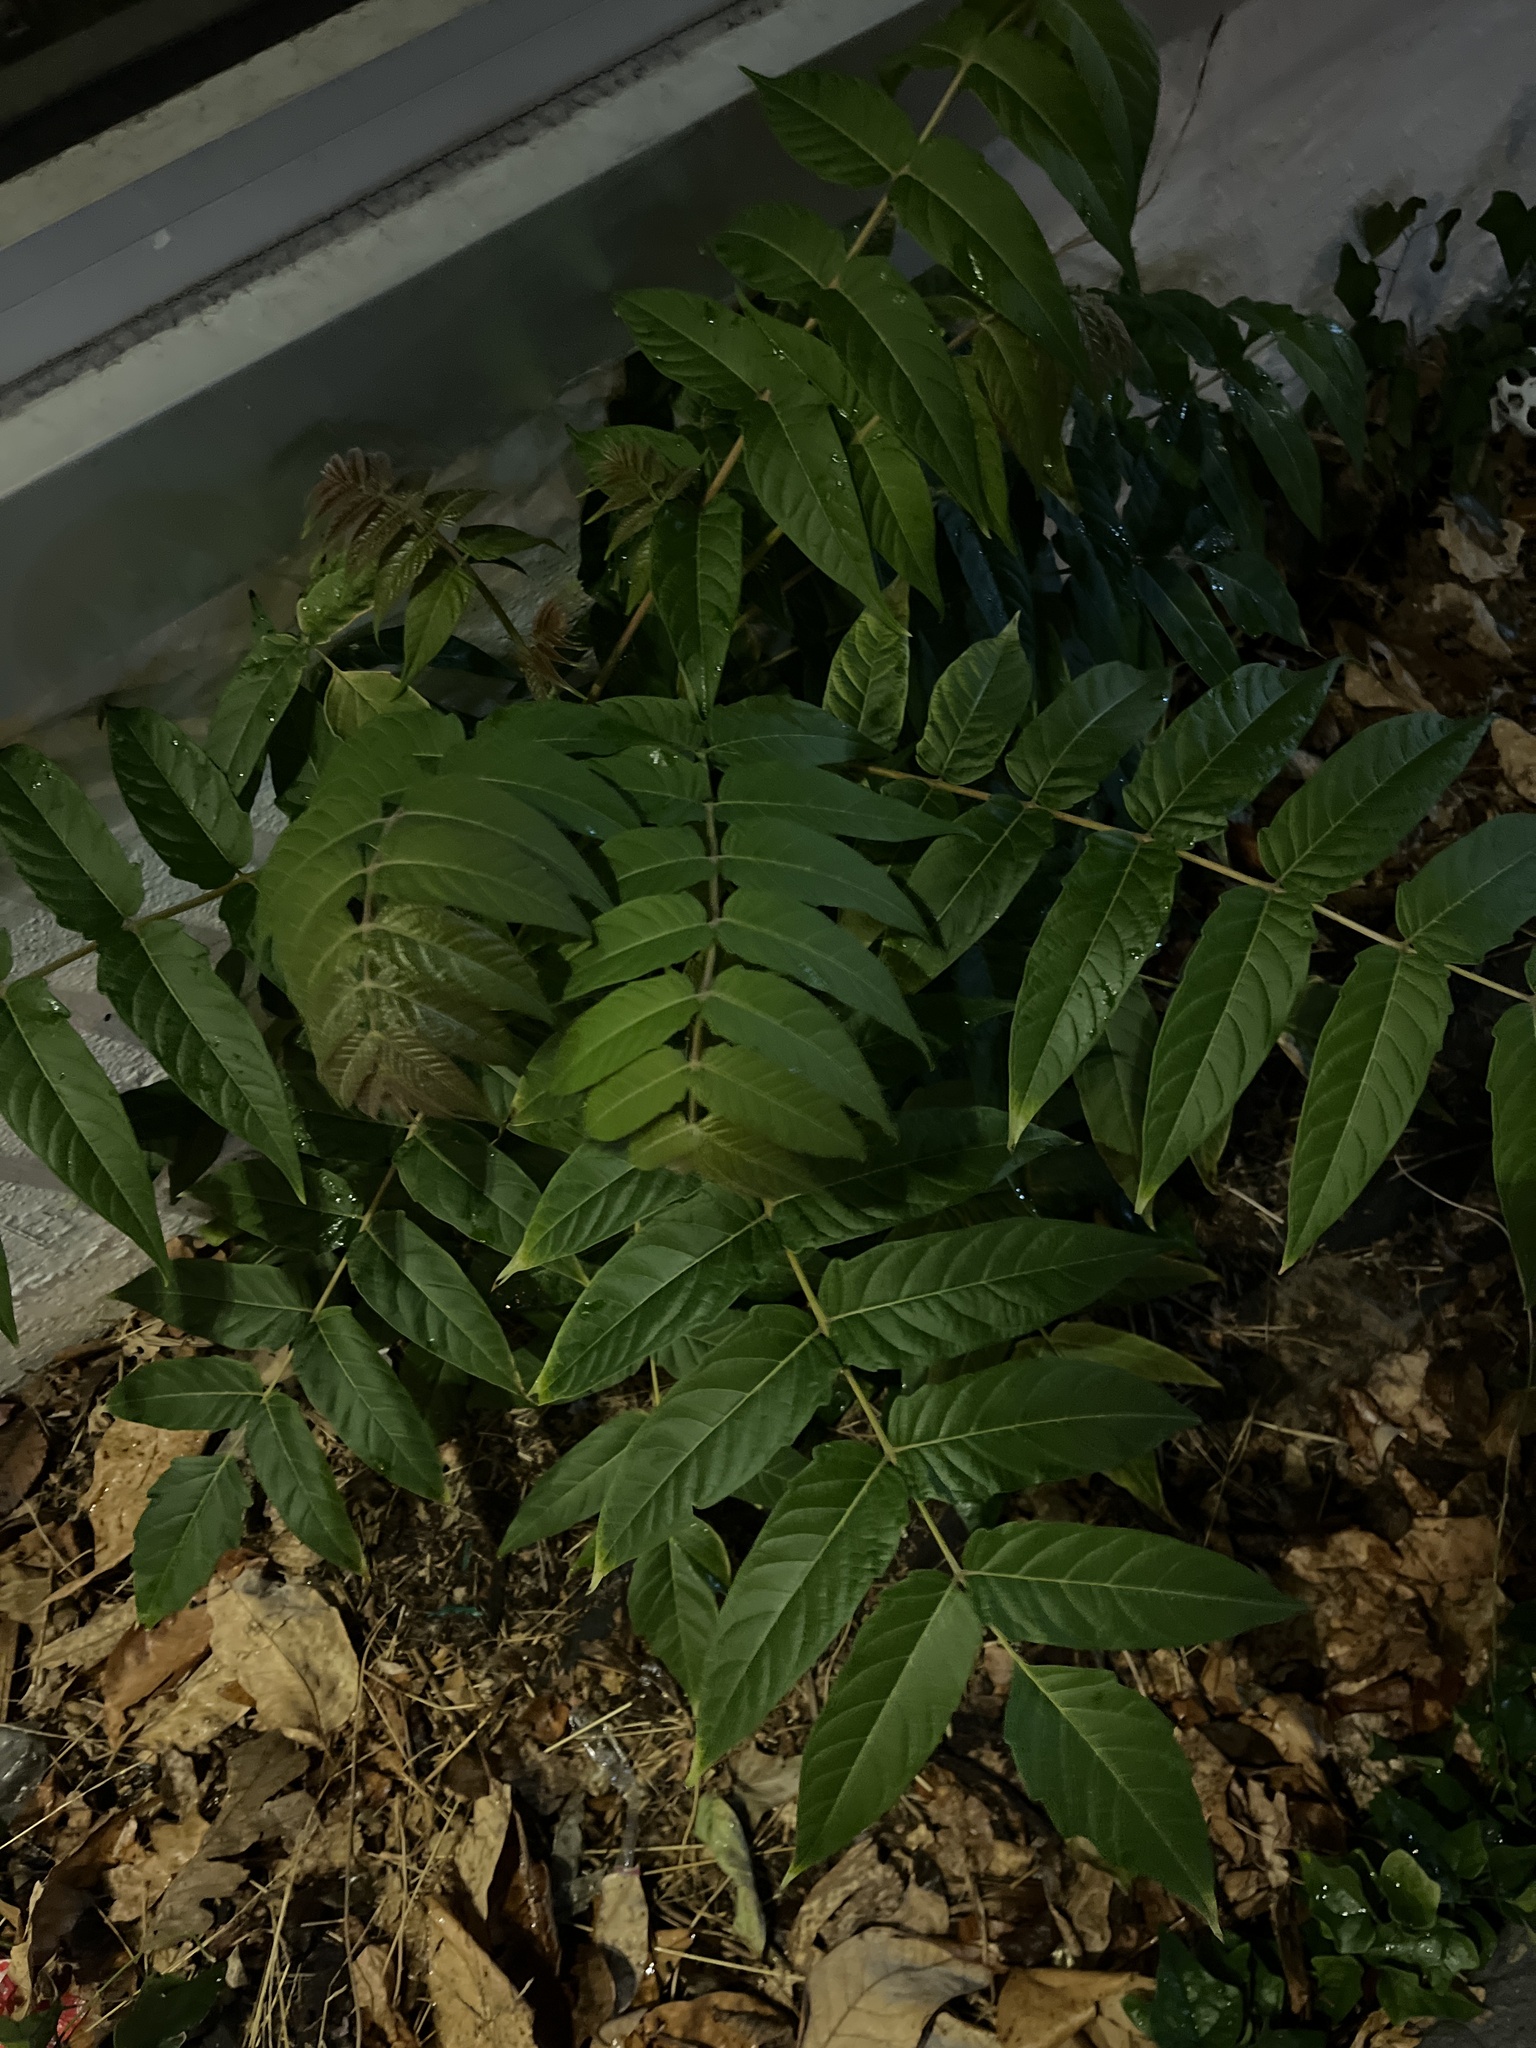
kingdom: Plantae
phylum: Tracheophyta
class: Magnoliopsida
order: Sapindales
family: Simaroubaceae
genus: Ailanthus
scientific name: Ailanthus altissima
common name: Tree-of-heaven
